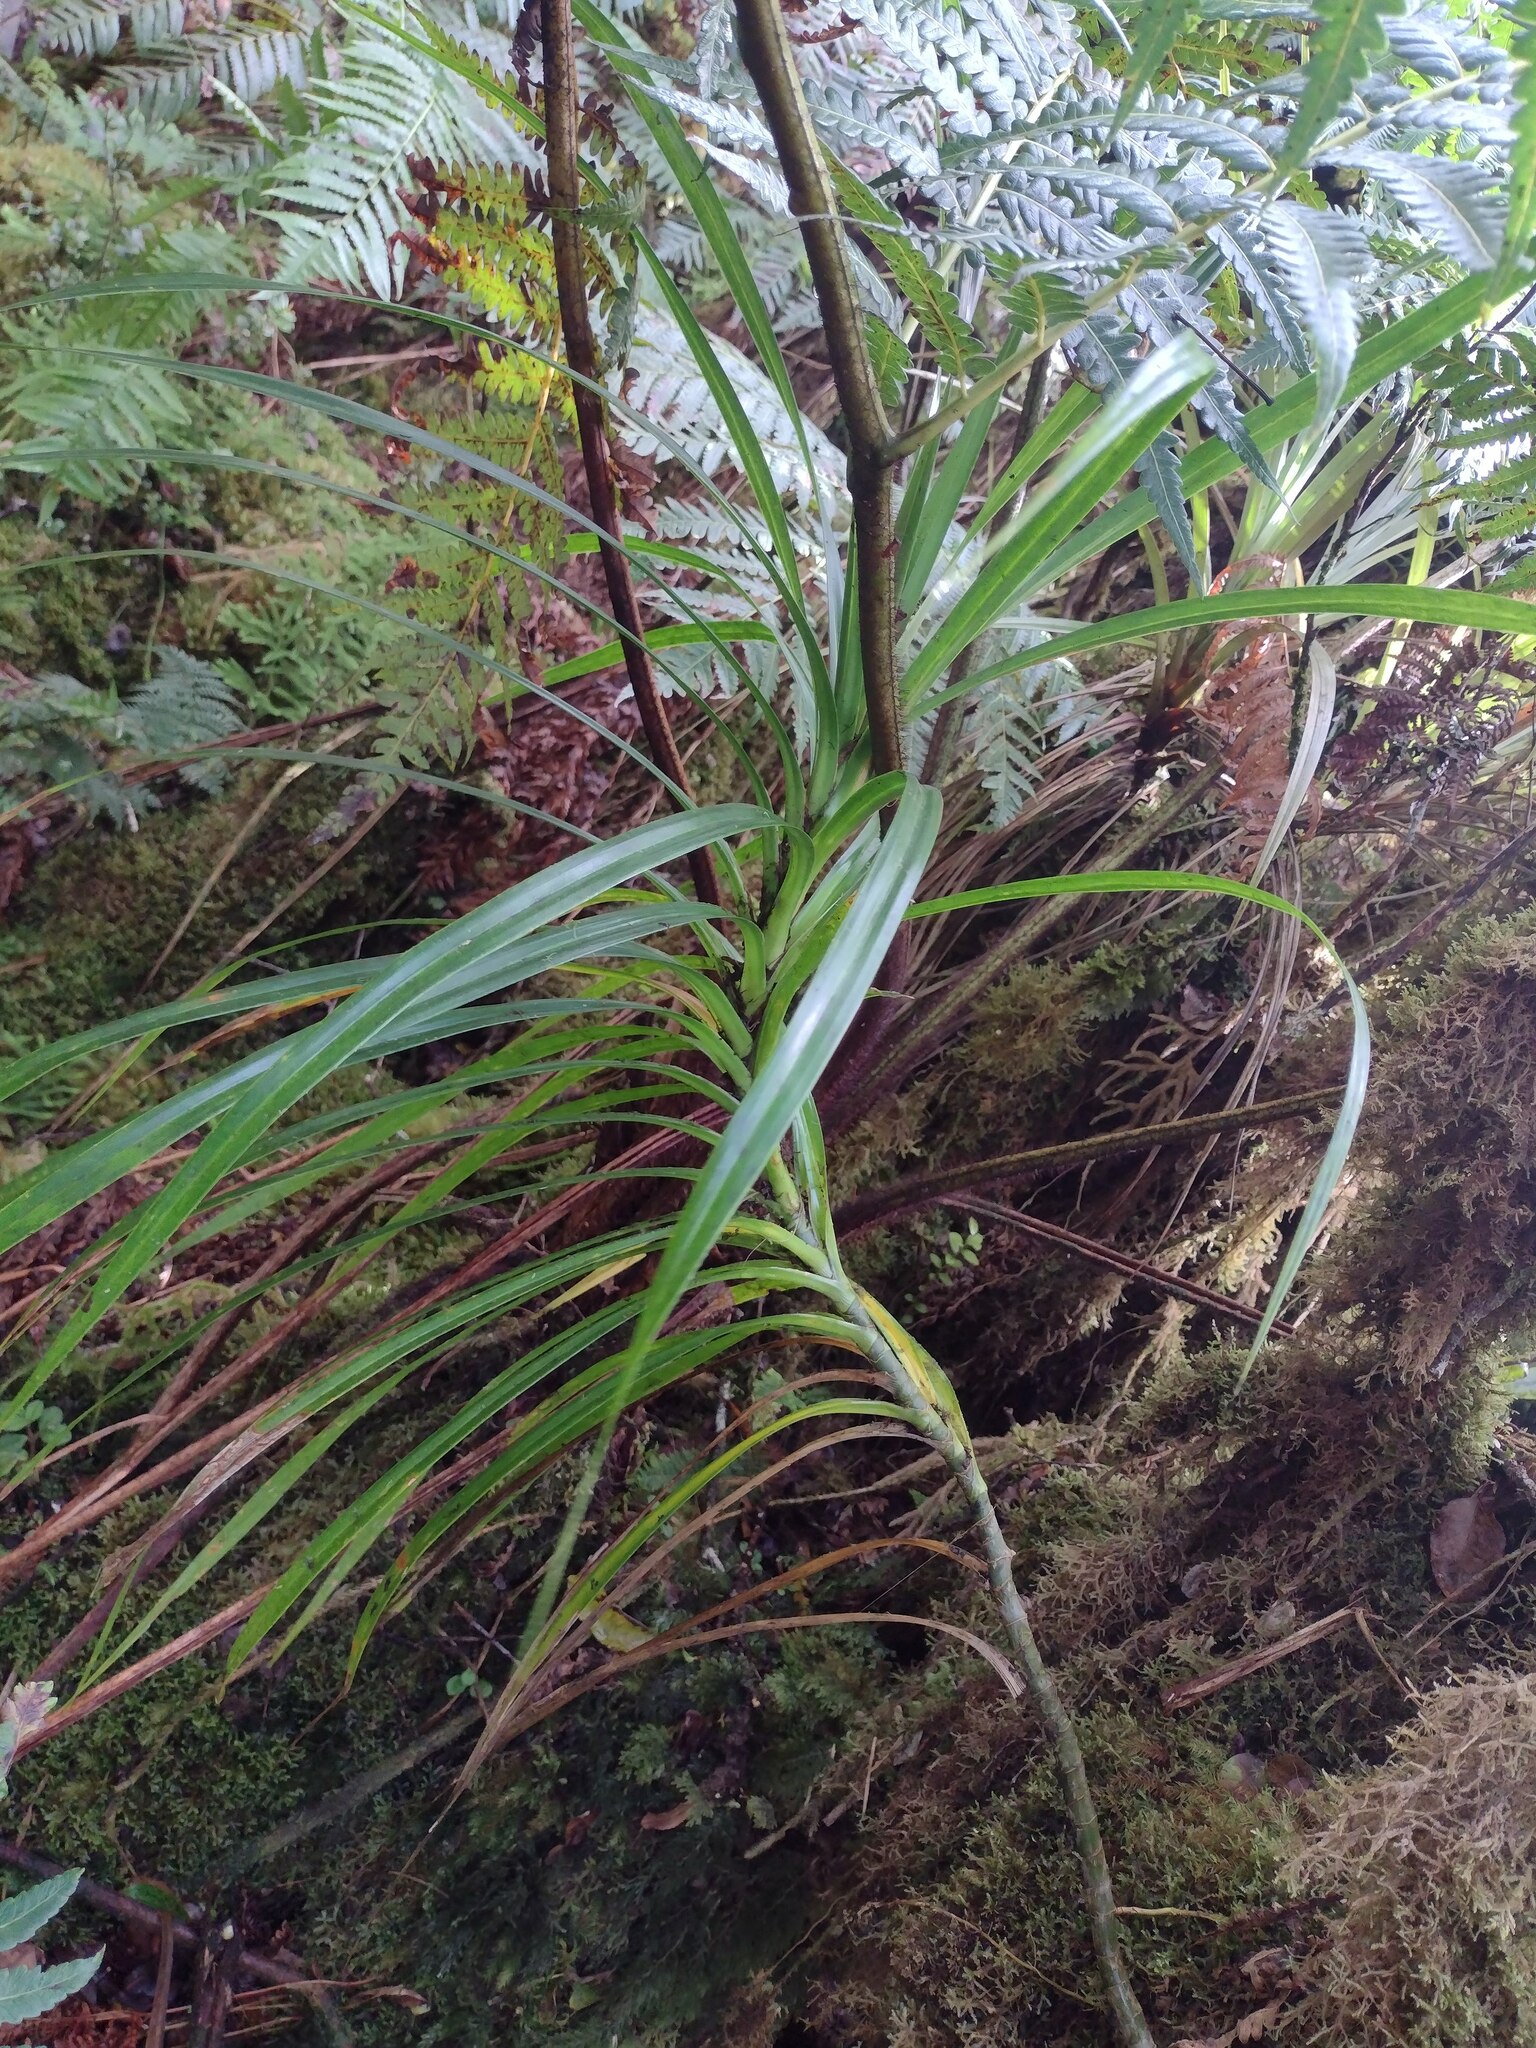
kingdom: Plantae
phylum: Tracheophyta
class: Liliopsida
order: Pandanales
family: Pandanaceae
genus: Freycinetia
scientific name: Freycinetia arborea
